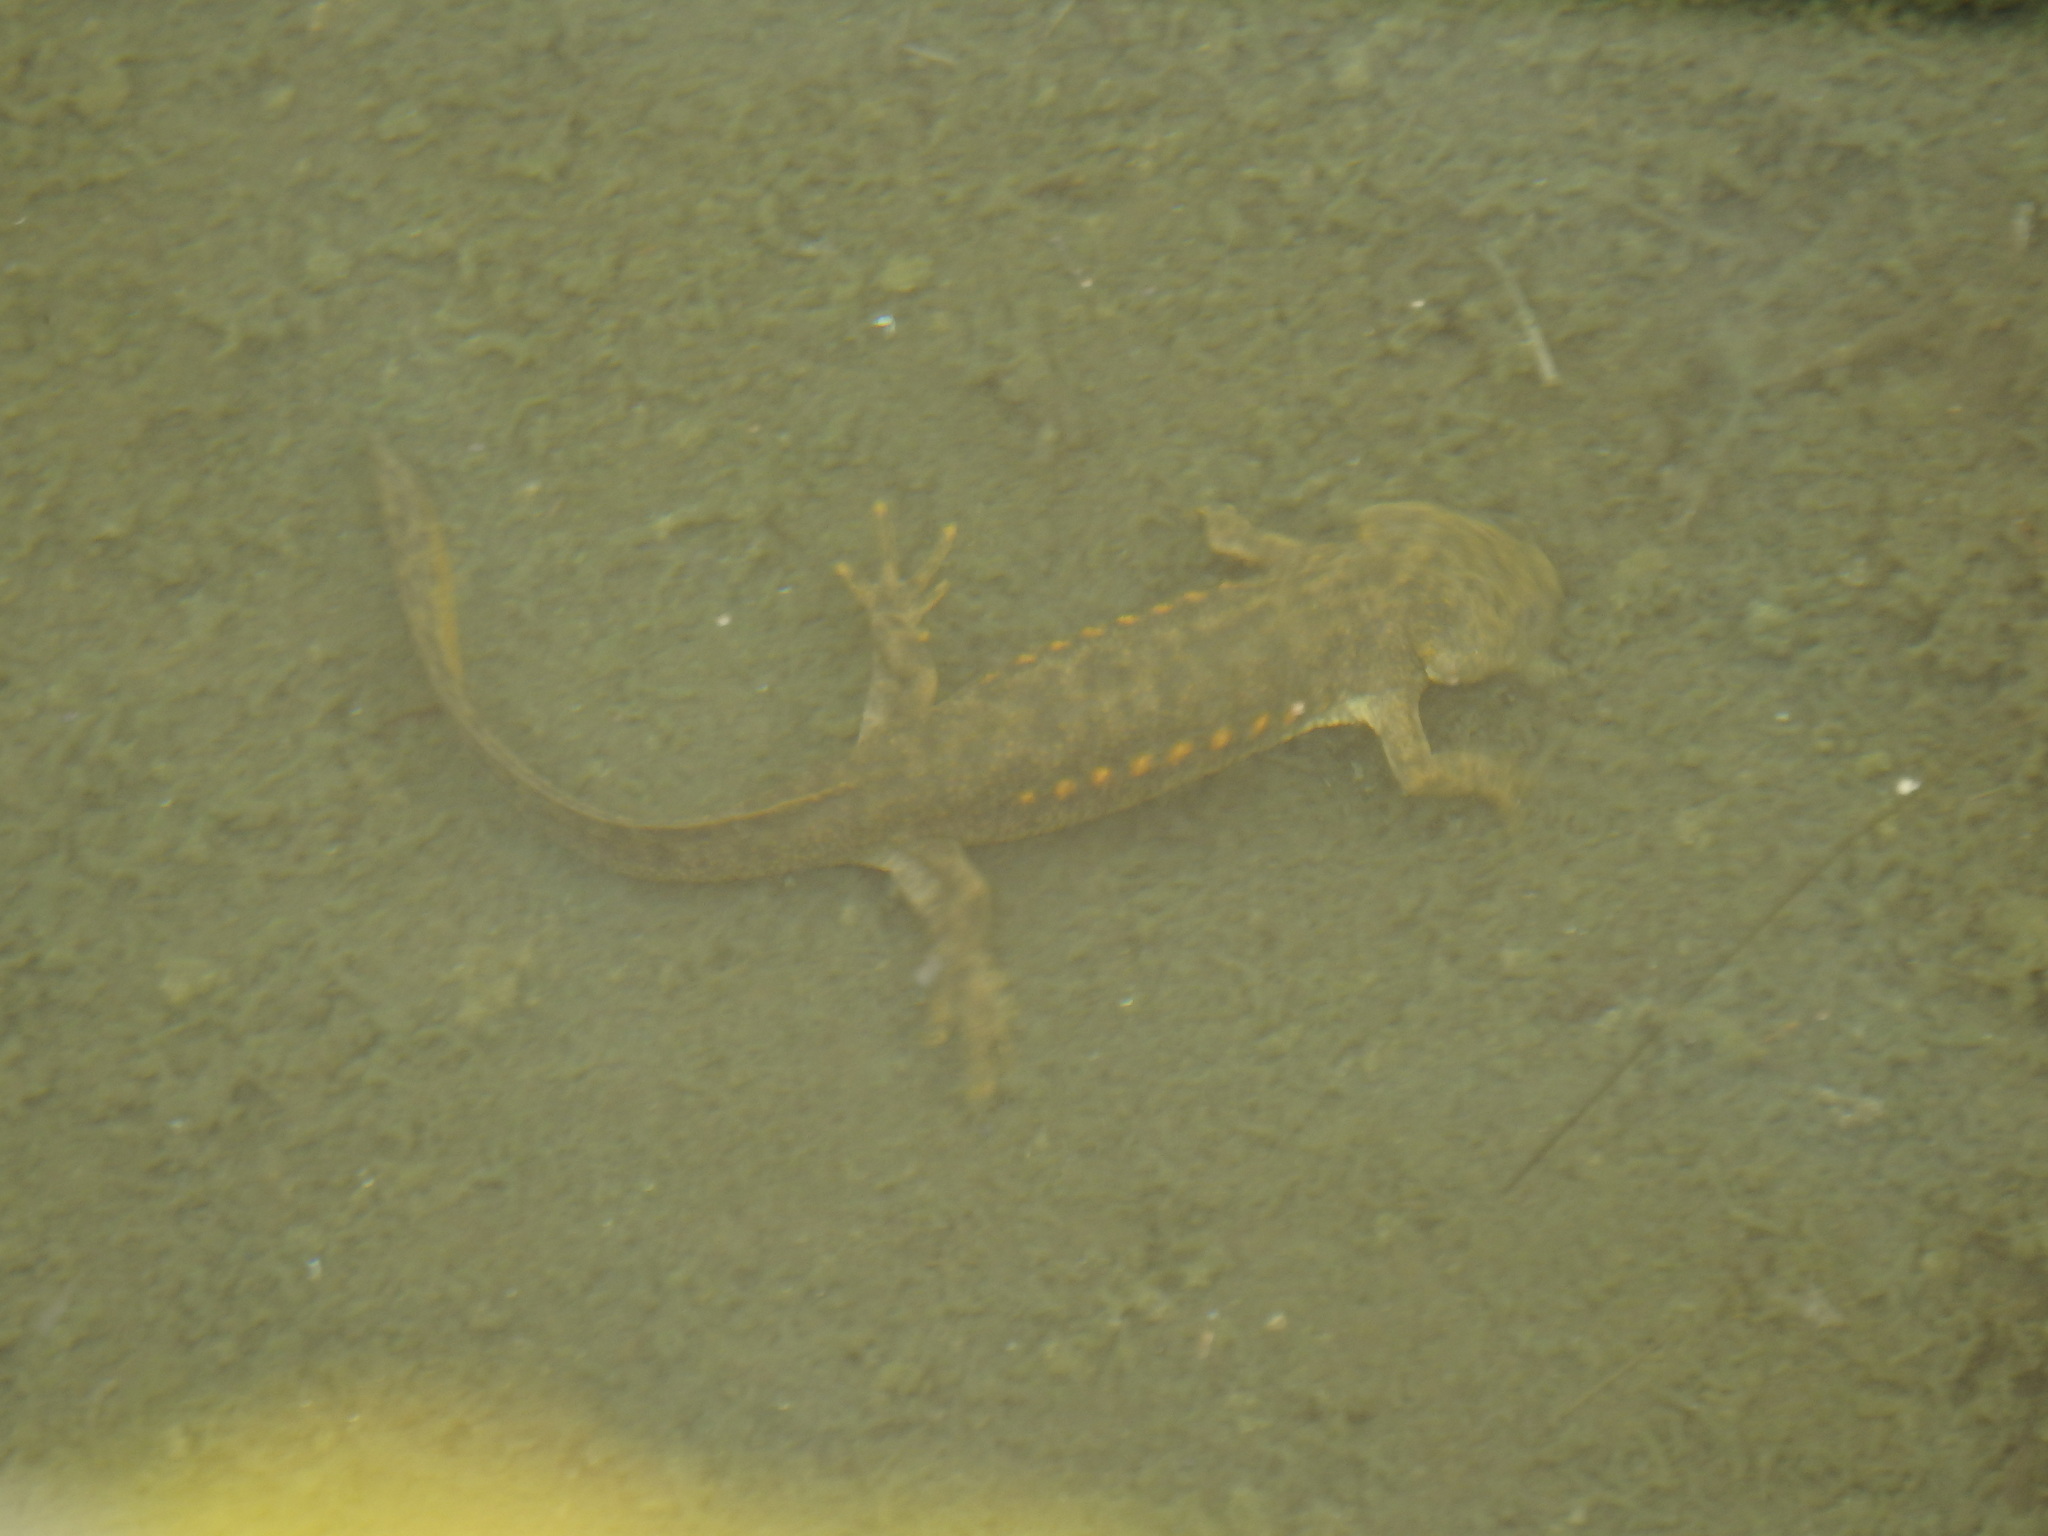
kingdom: Animalia
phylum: Chordata
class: Amphibia
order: Caudata
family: Salamandridae
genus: Pleurodeles
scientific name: Pleurodeles waltl
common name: Iberian ribbed newt
